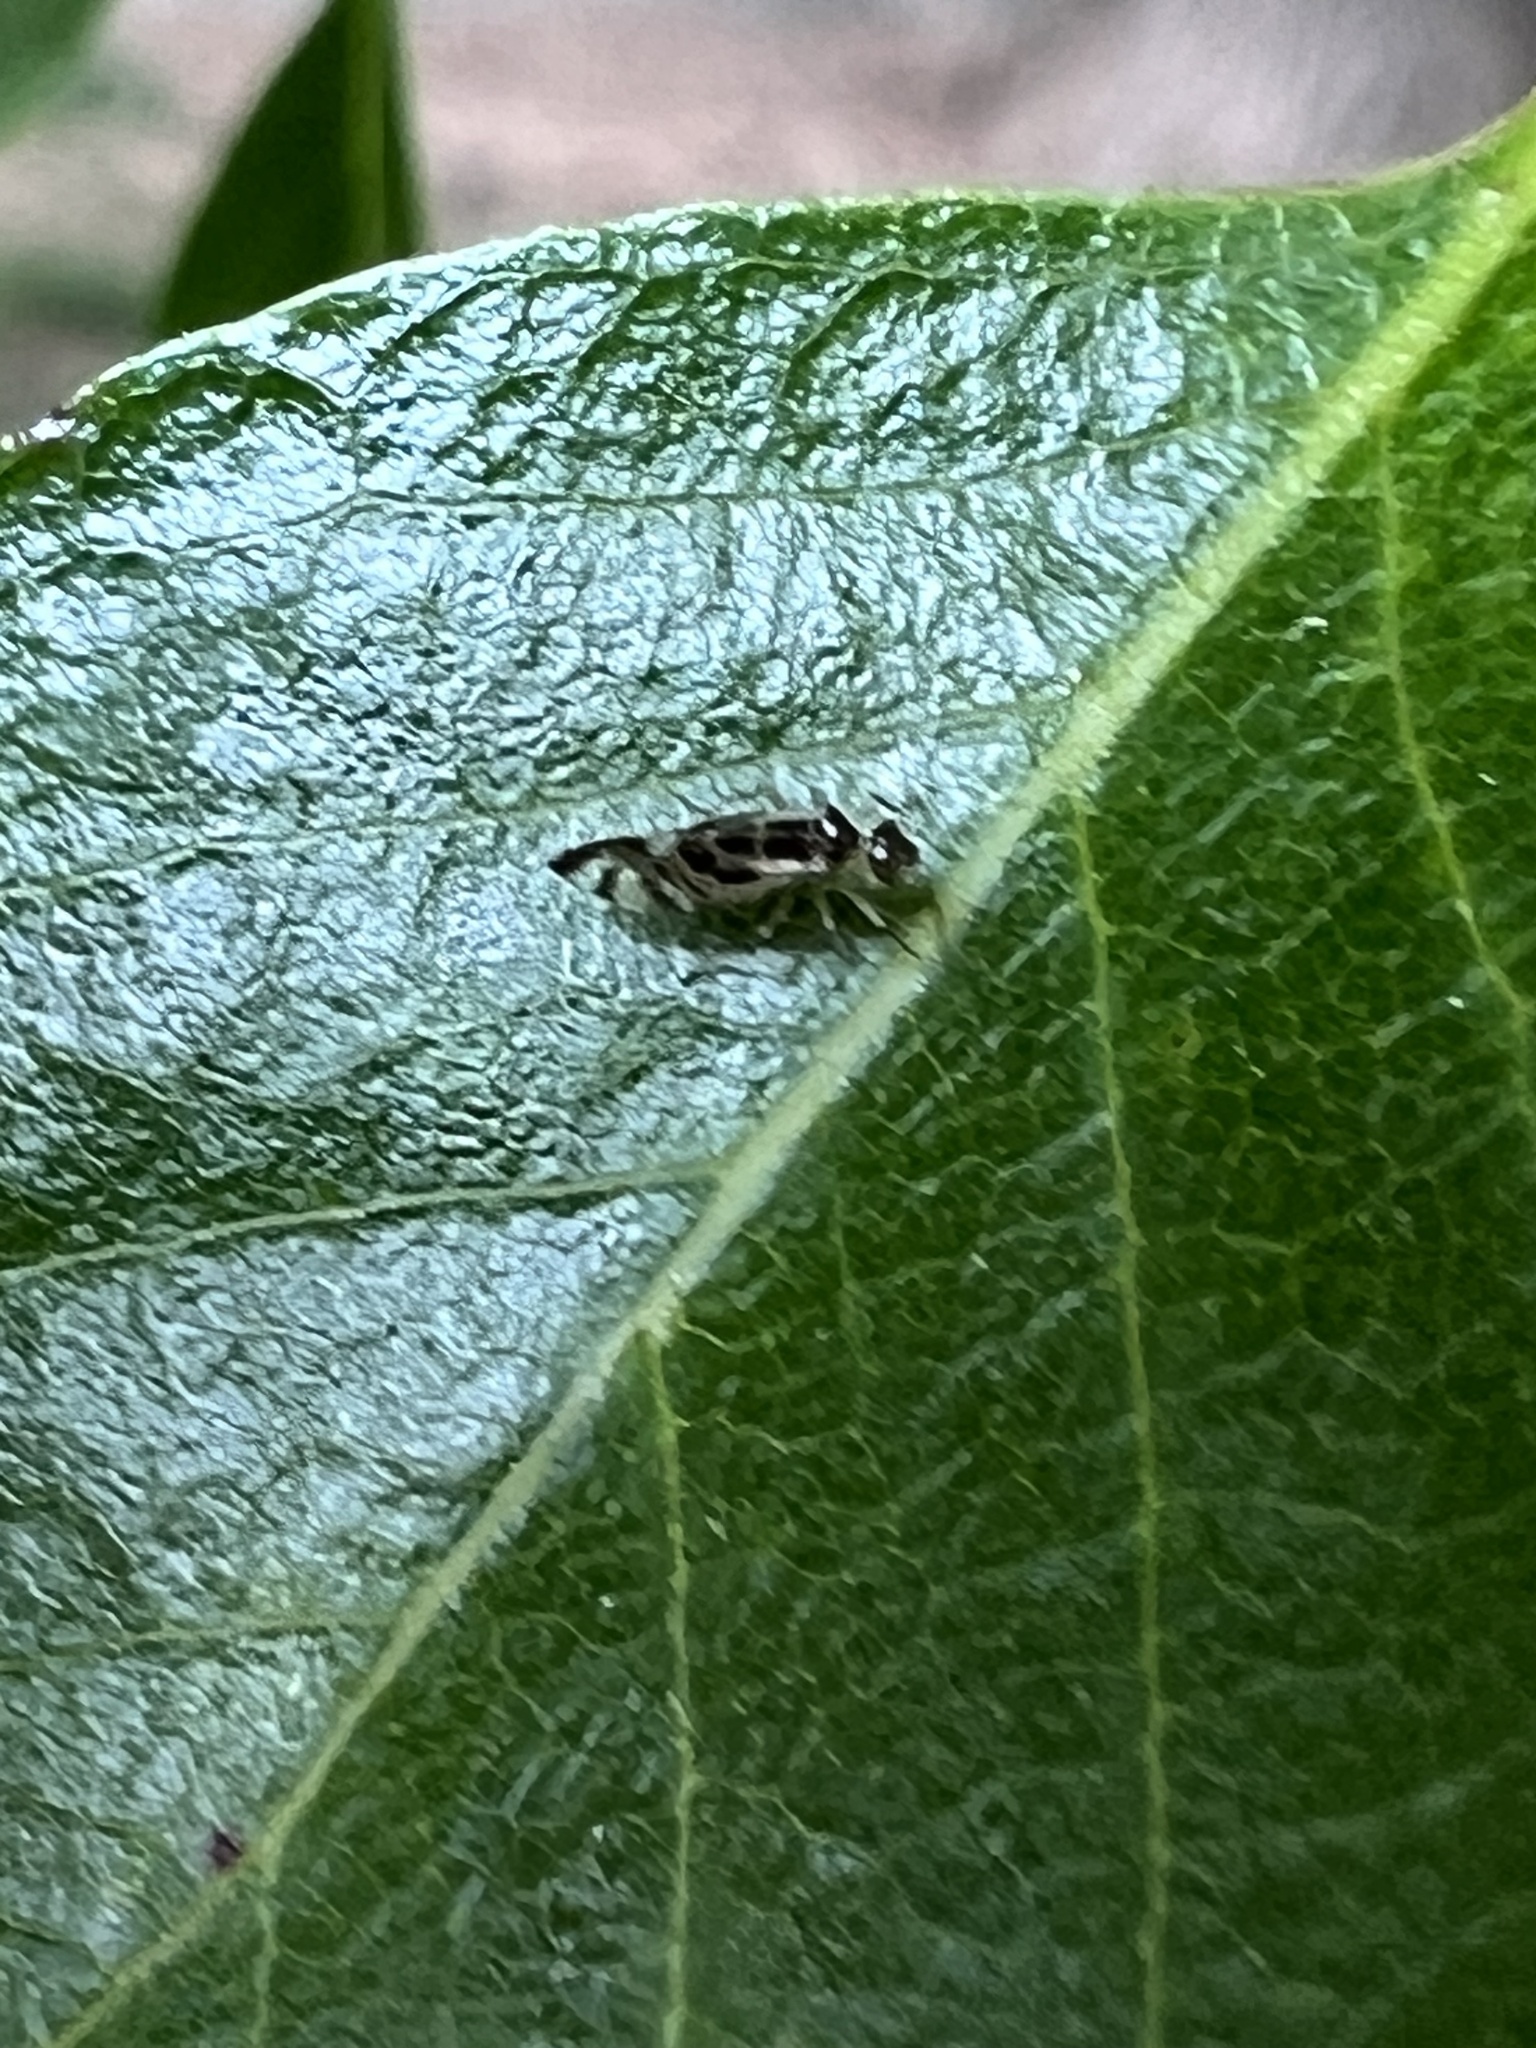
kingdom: Animalia
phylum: Arthropoda
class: Insecta
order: Psocodea
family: Stenopsocidae
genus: Graphopsocus
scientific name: Graphopsocus cruciatus
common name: Lizard bark louse
